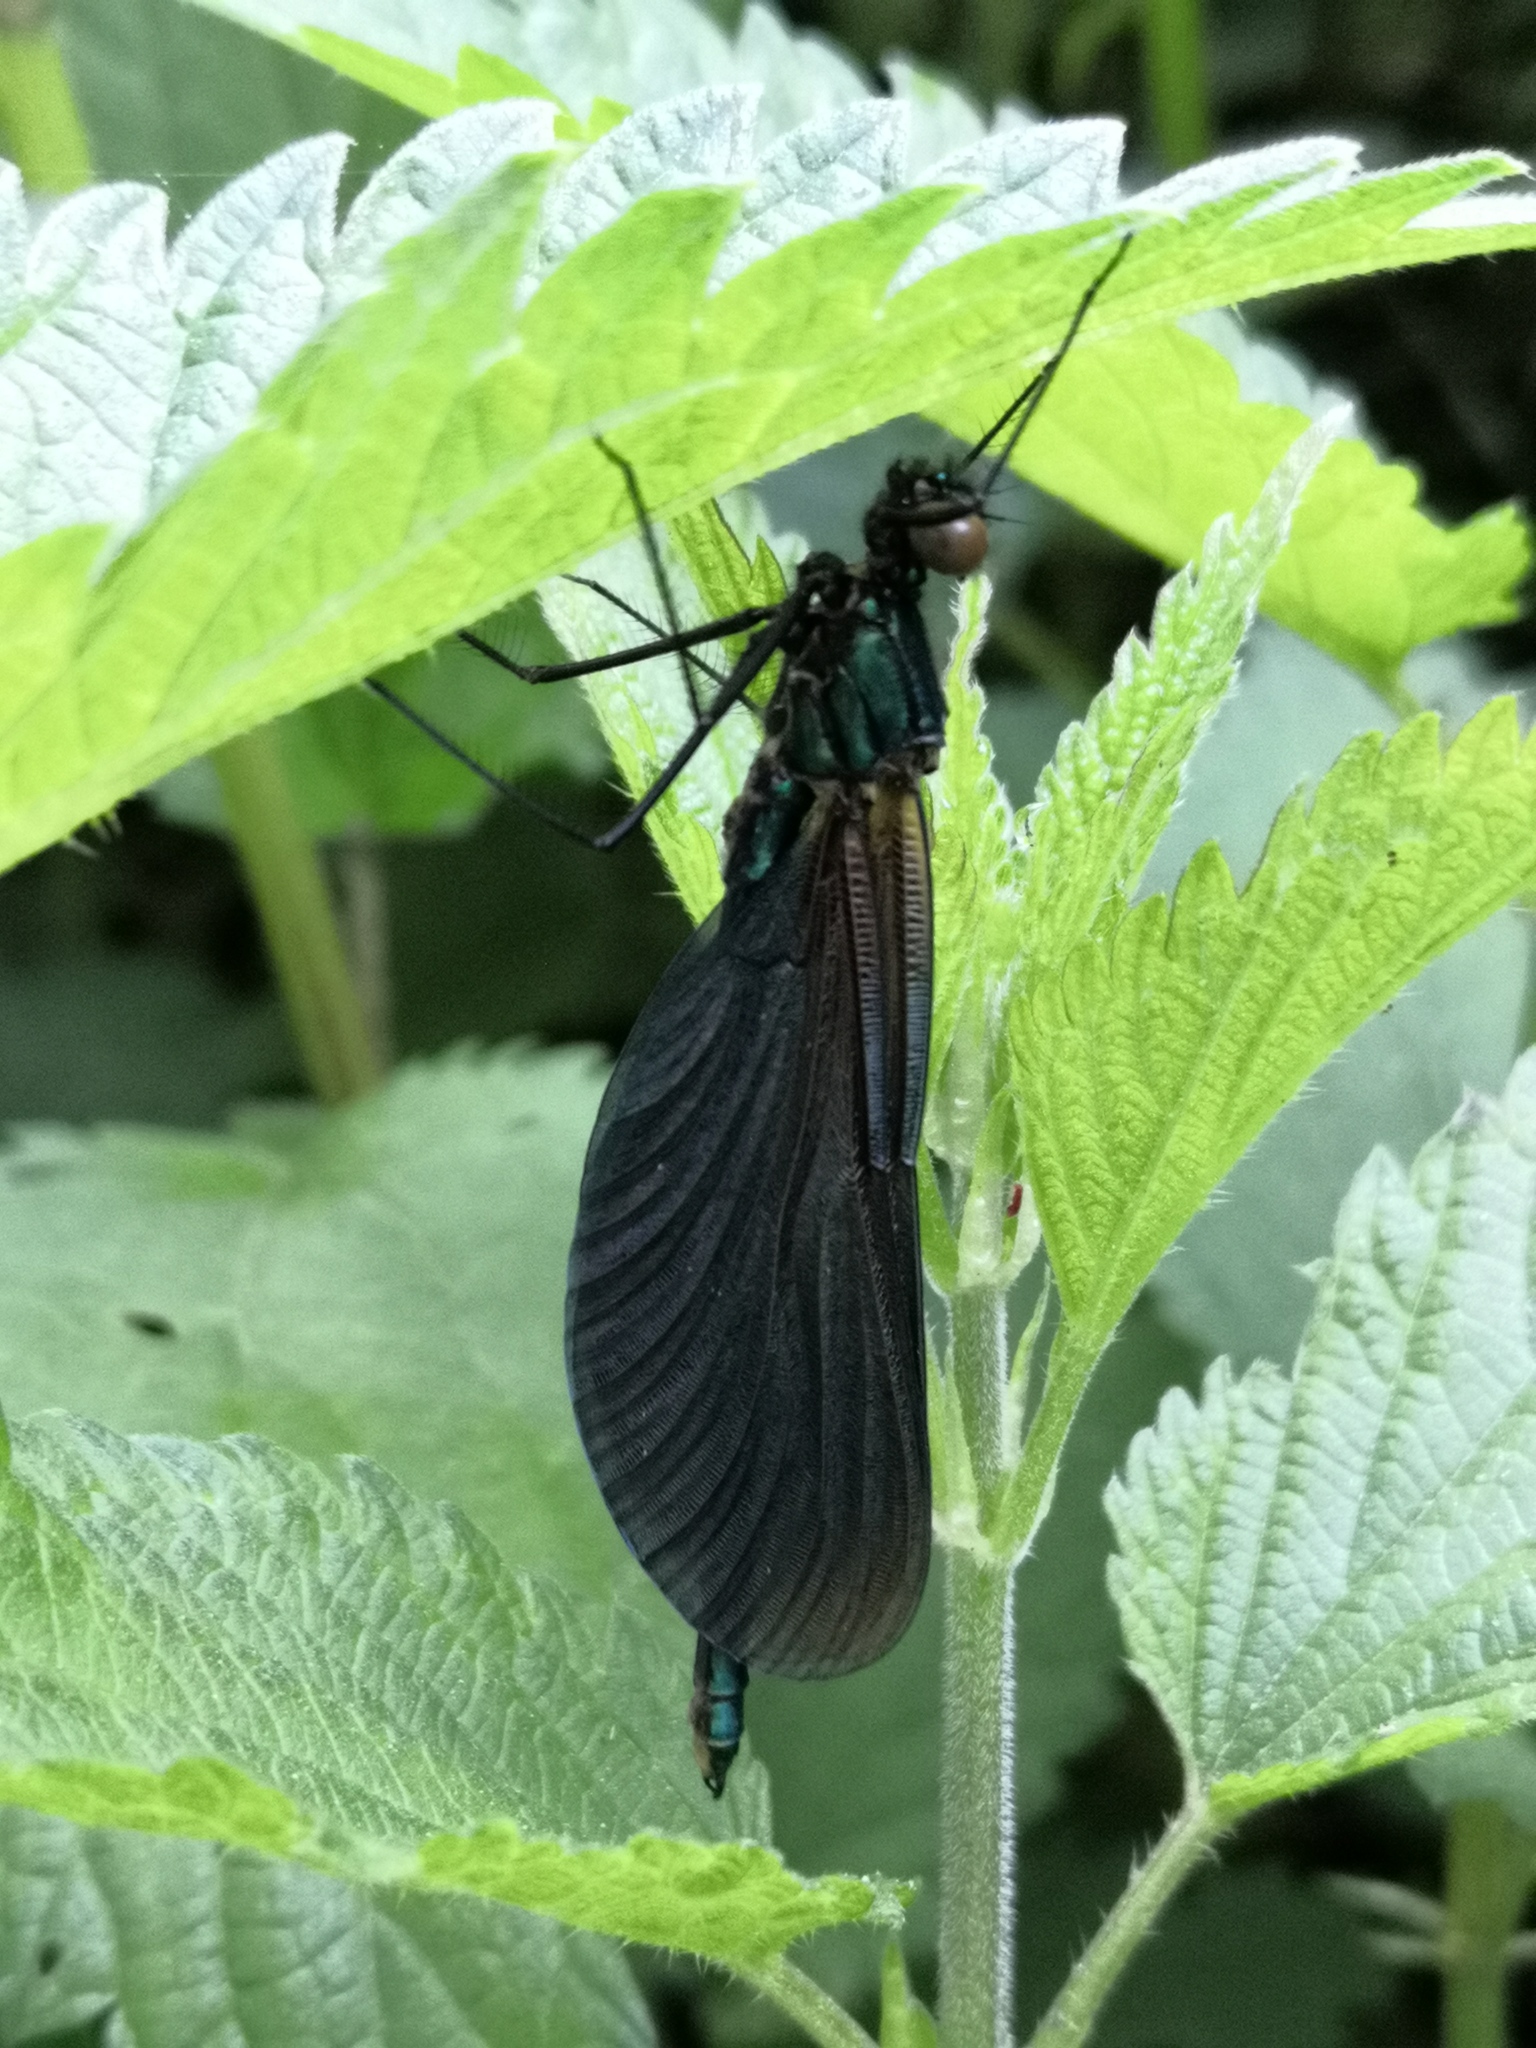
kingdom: Animalia
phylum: Arthropoda
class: Insecta
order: Odonata
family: Calopterygidae
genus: Calopteryx
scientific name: Calopteryx virgo
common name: Beautiful demoiselle
